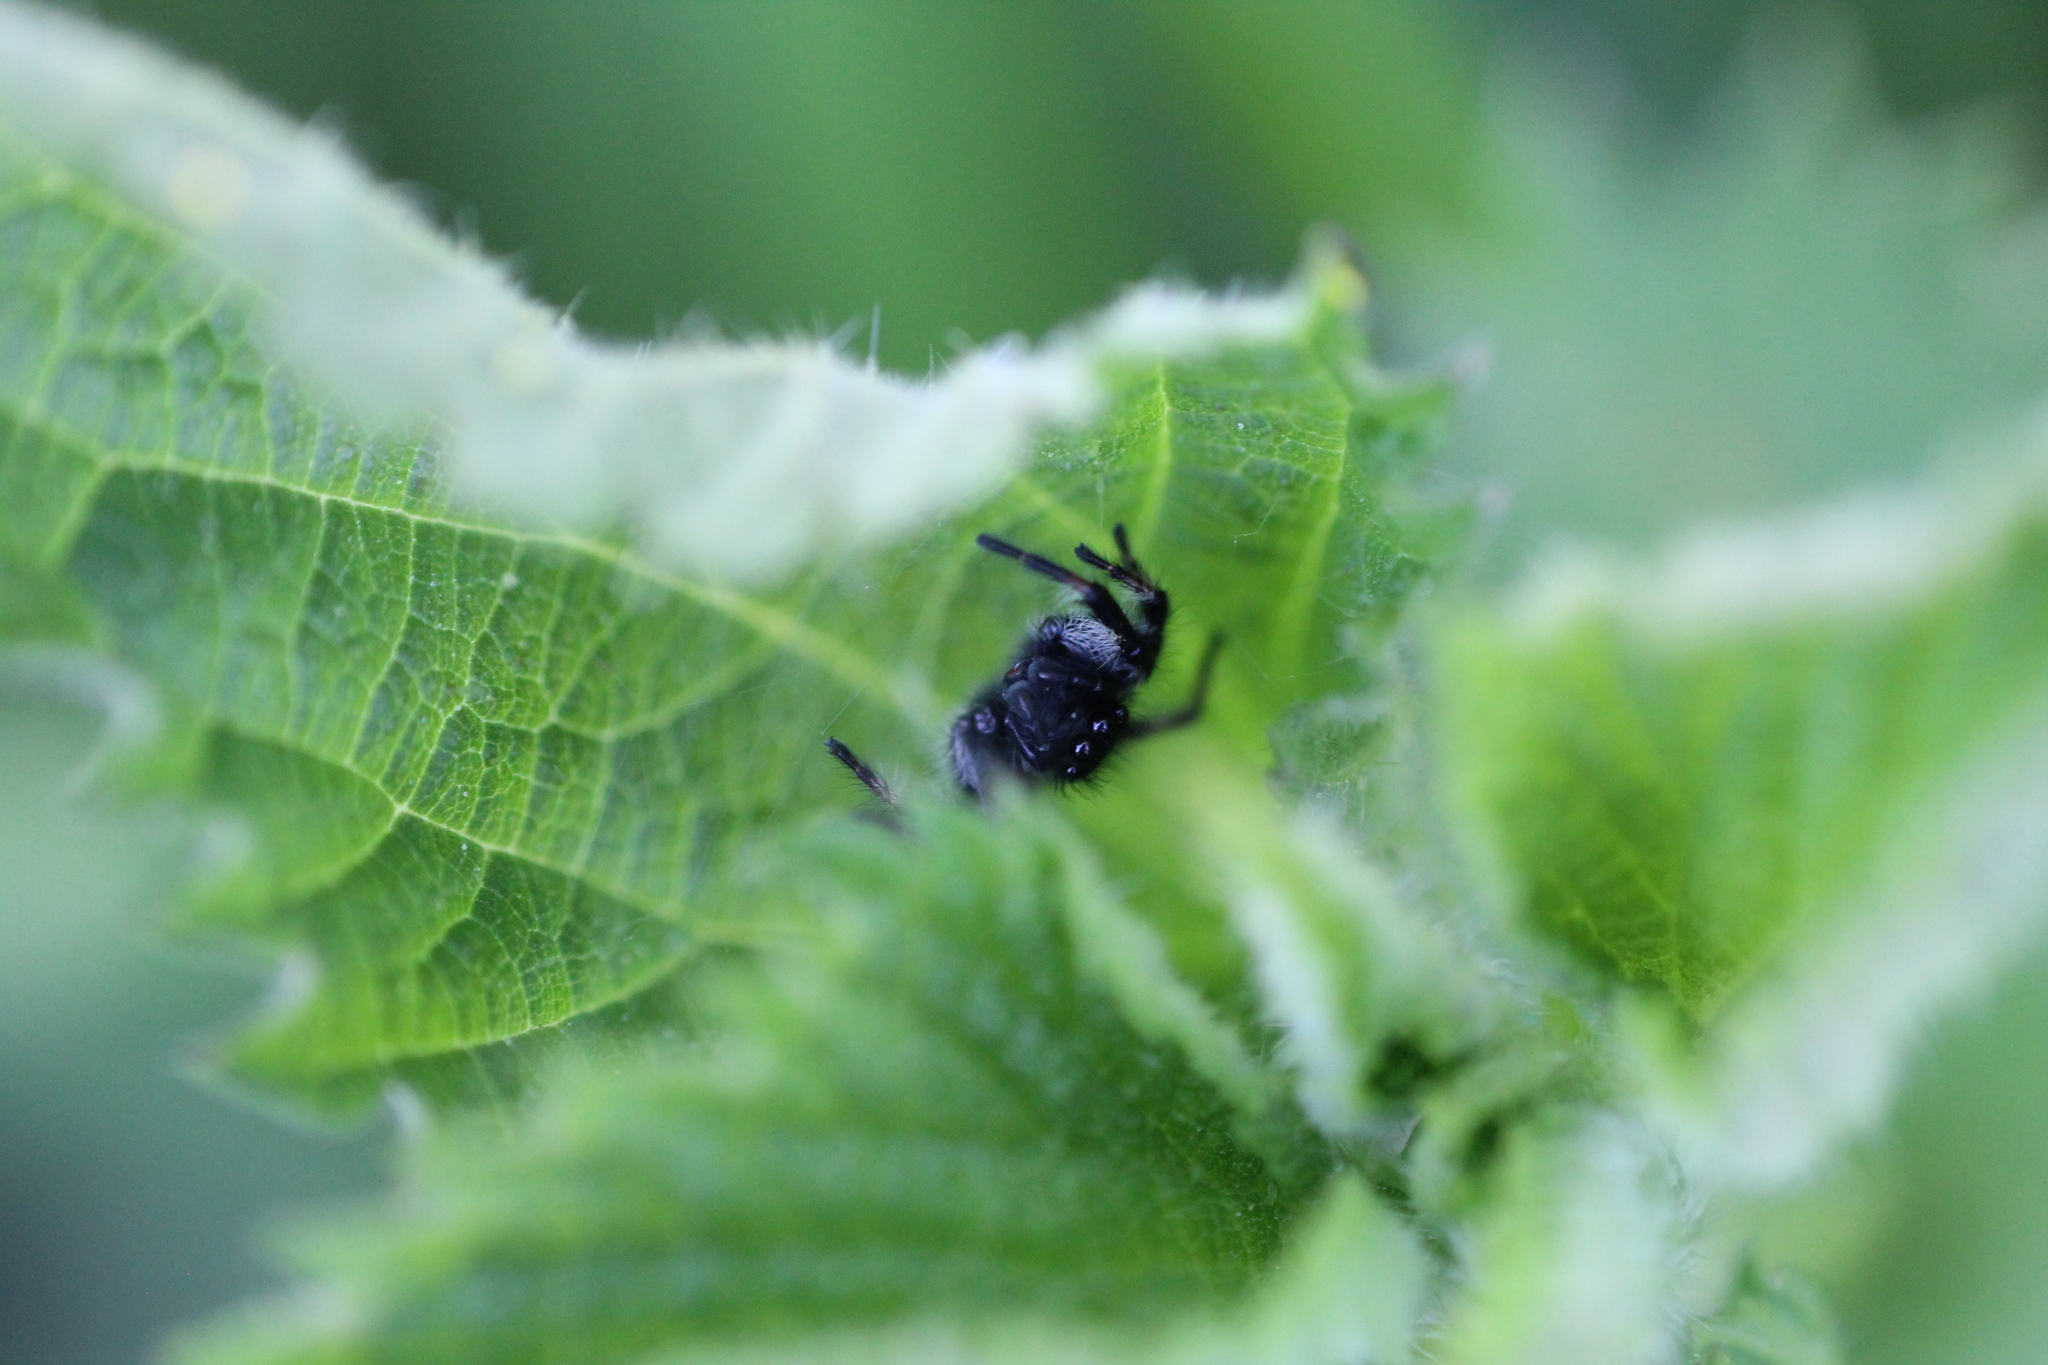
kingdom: Animalia
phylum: Arthropoda
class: Arachnida
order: Araneae
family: Salticidae
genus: Carrhotus
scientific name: Carrhotus xanthogramma
